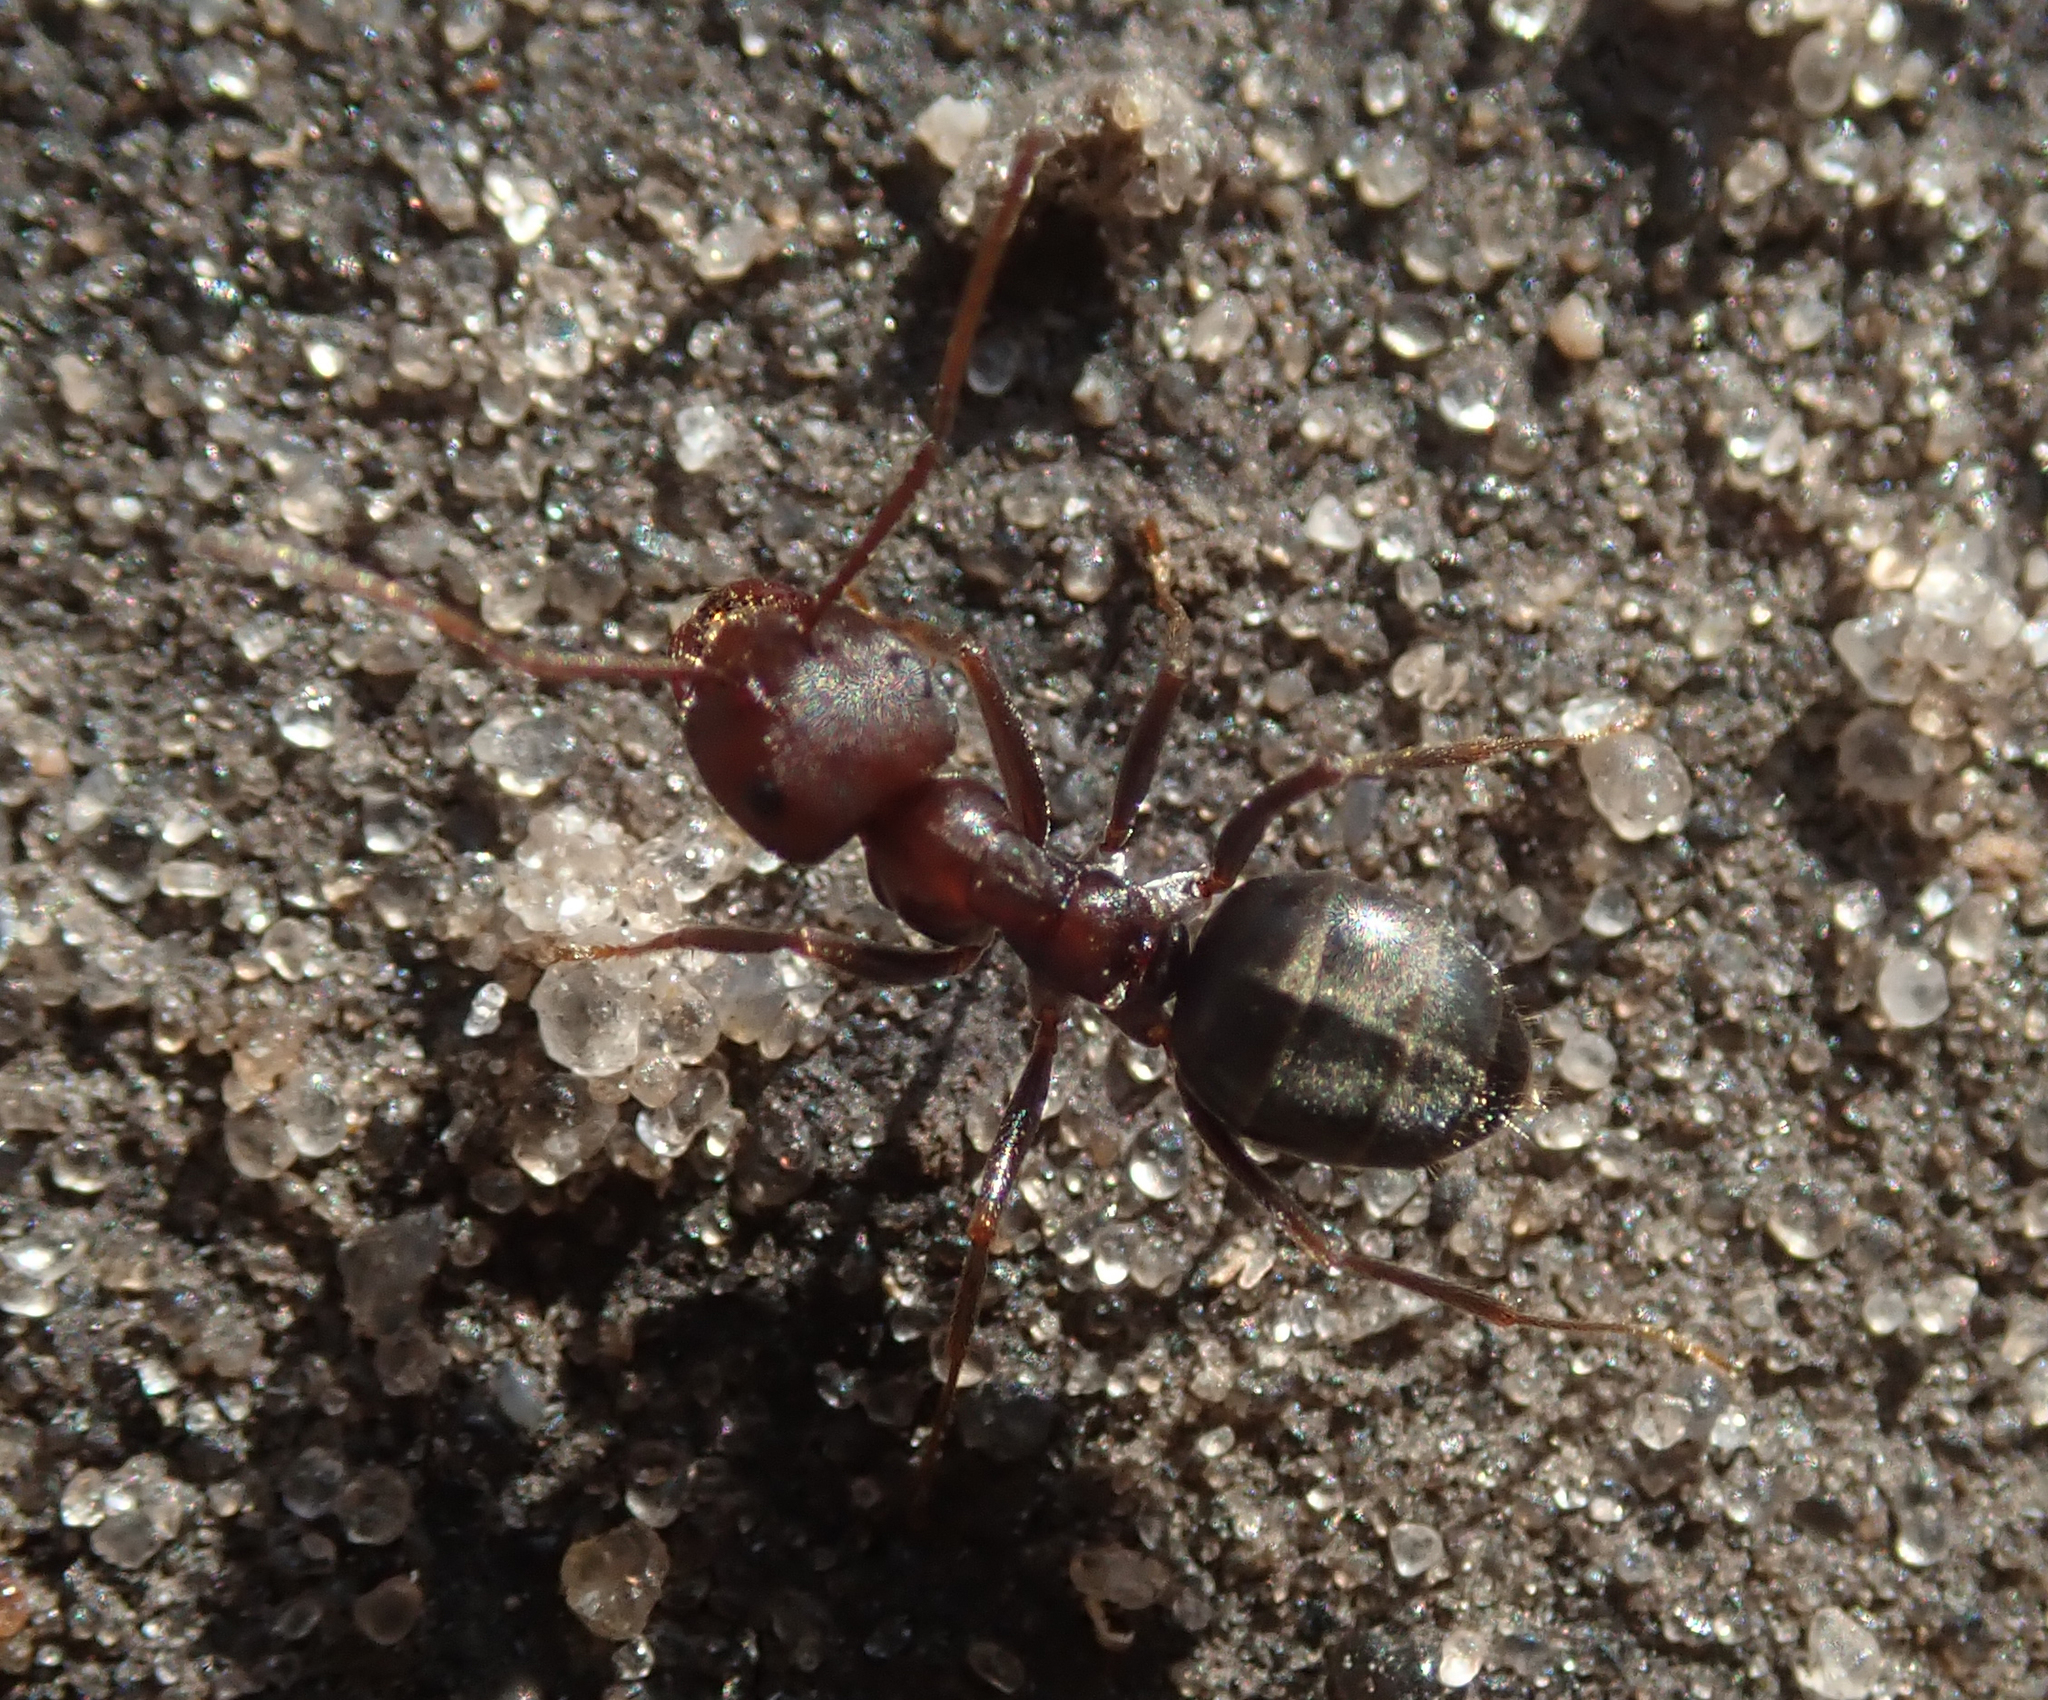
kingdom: Animalia
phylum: Arthropoda
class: Insecta
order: Hymenoptera
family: Formicidae
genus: Anoplolepis
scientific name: Anoplolepis steingroeveri
